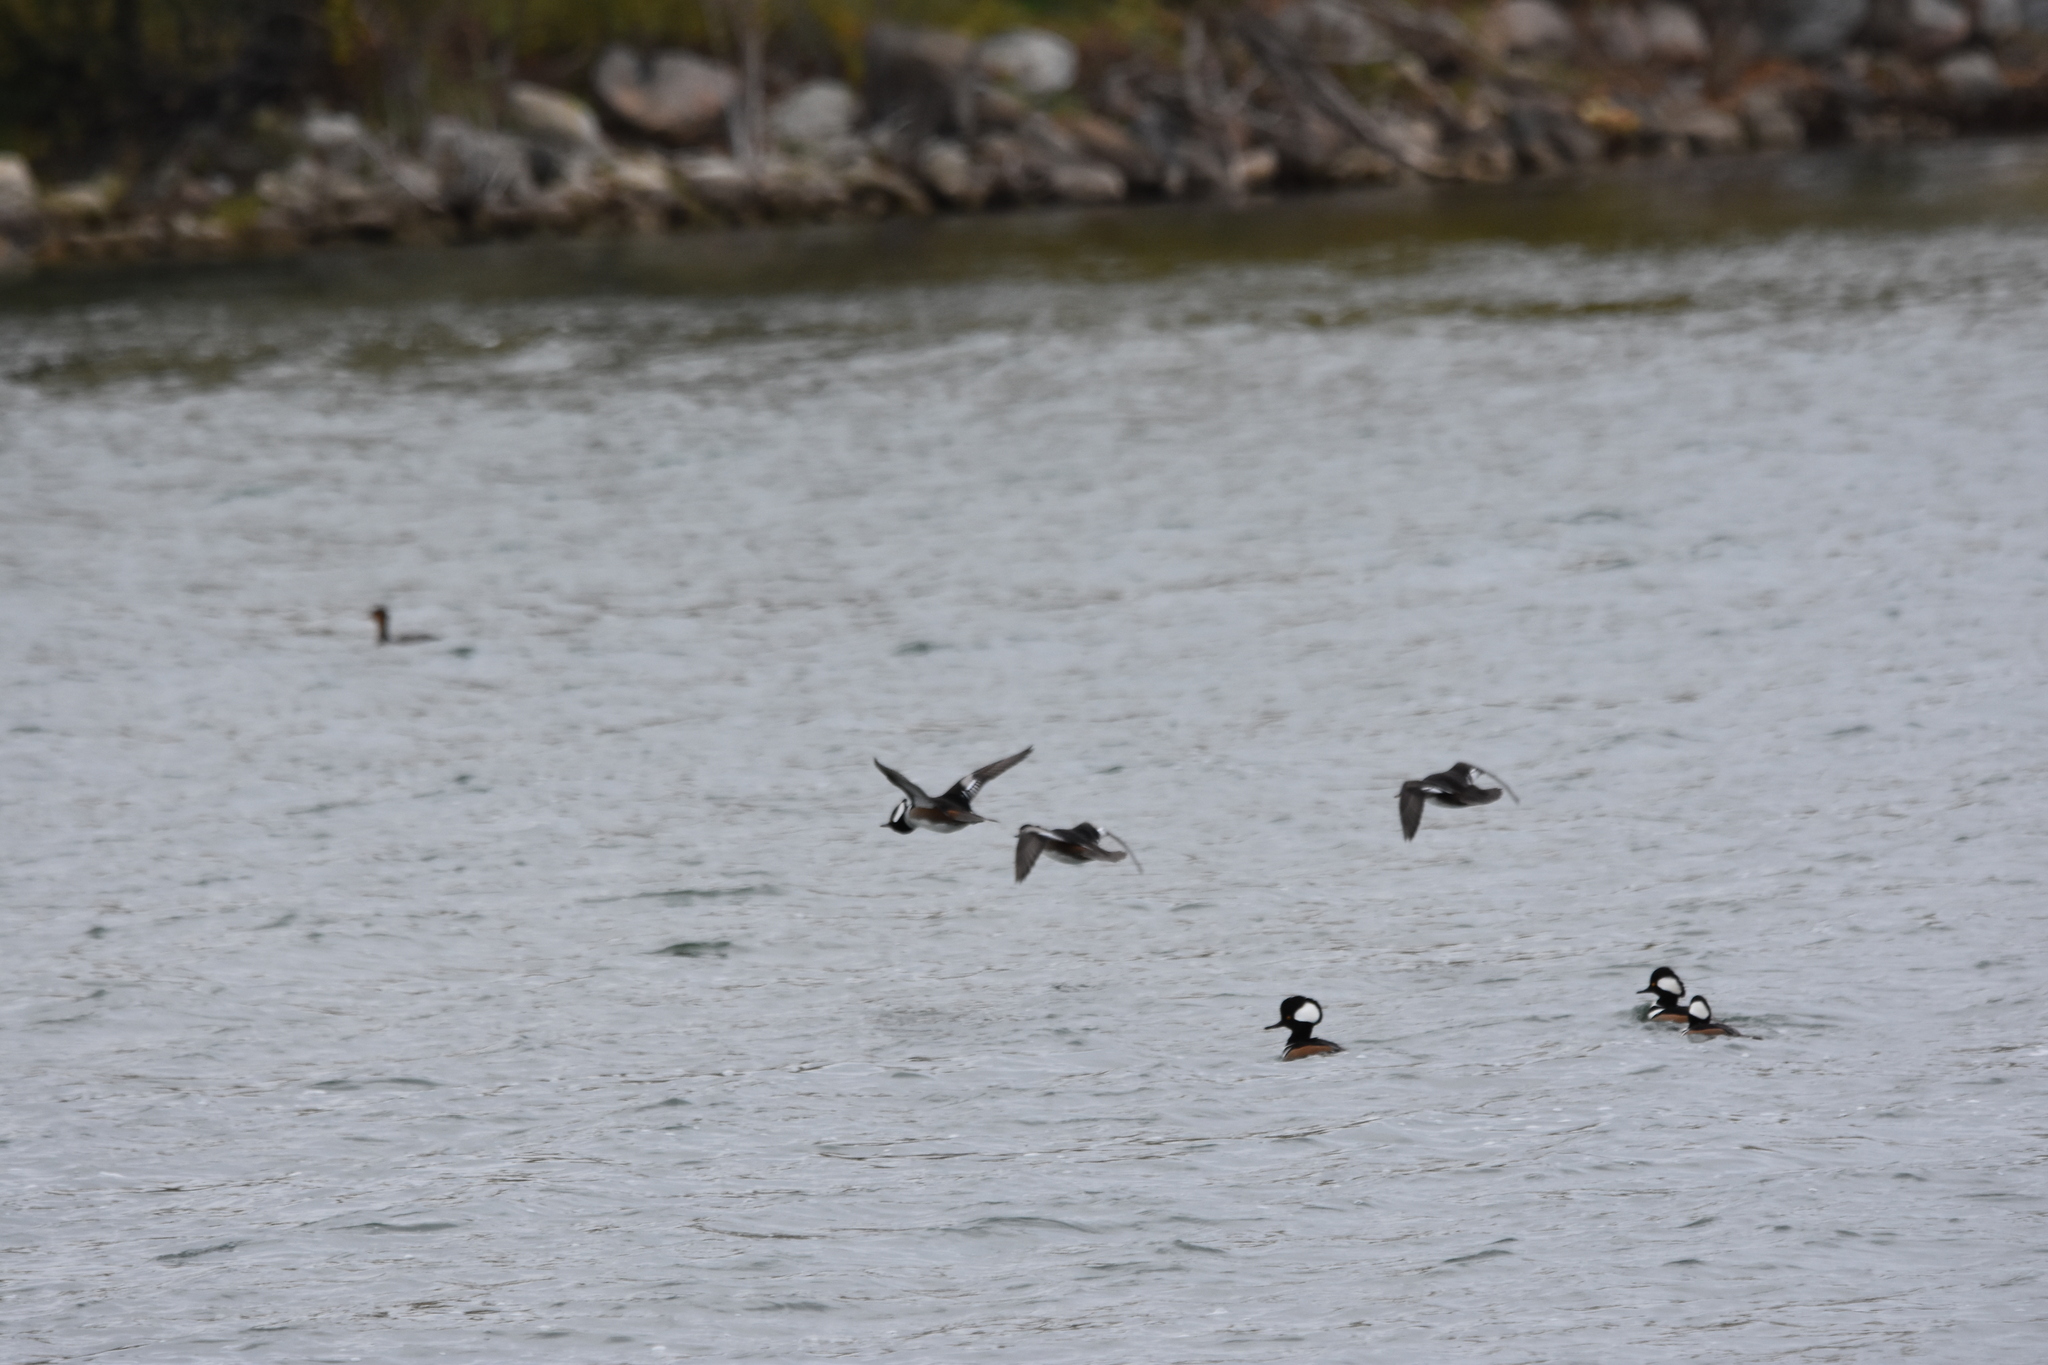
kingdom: Animalia
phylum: Chordata
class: Aves
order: Anseriformes
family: Anatidae
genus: Lophodytes
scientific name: Lophodytes cucullatus
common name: Hooded merganser
